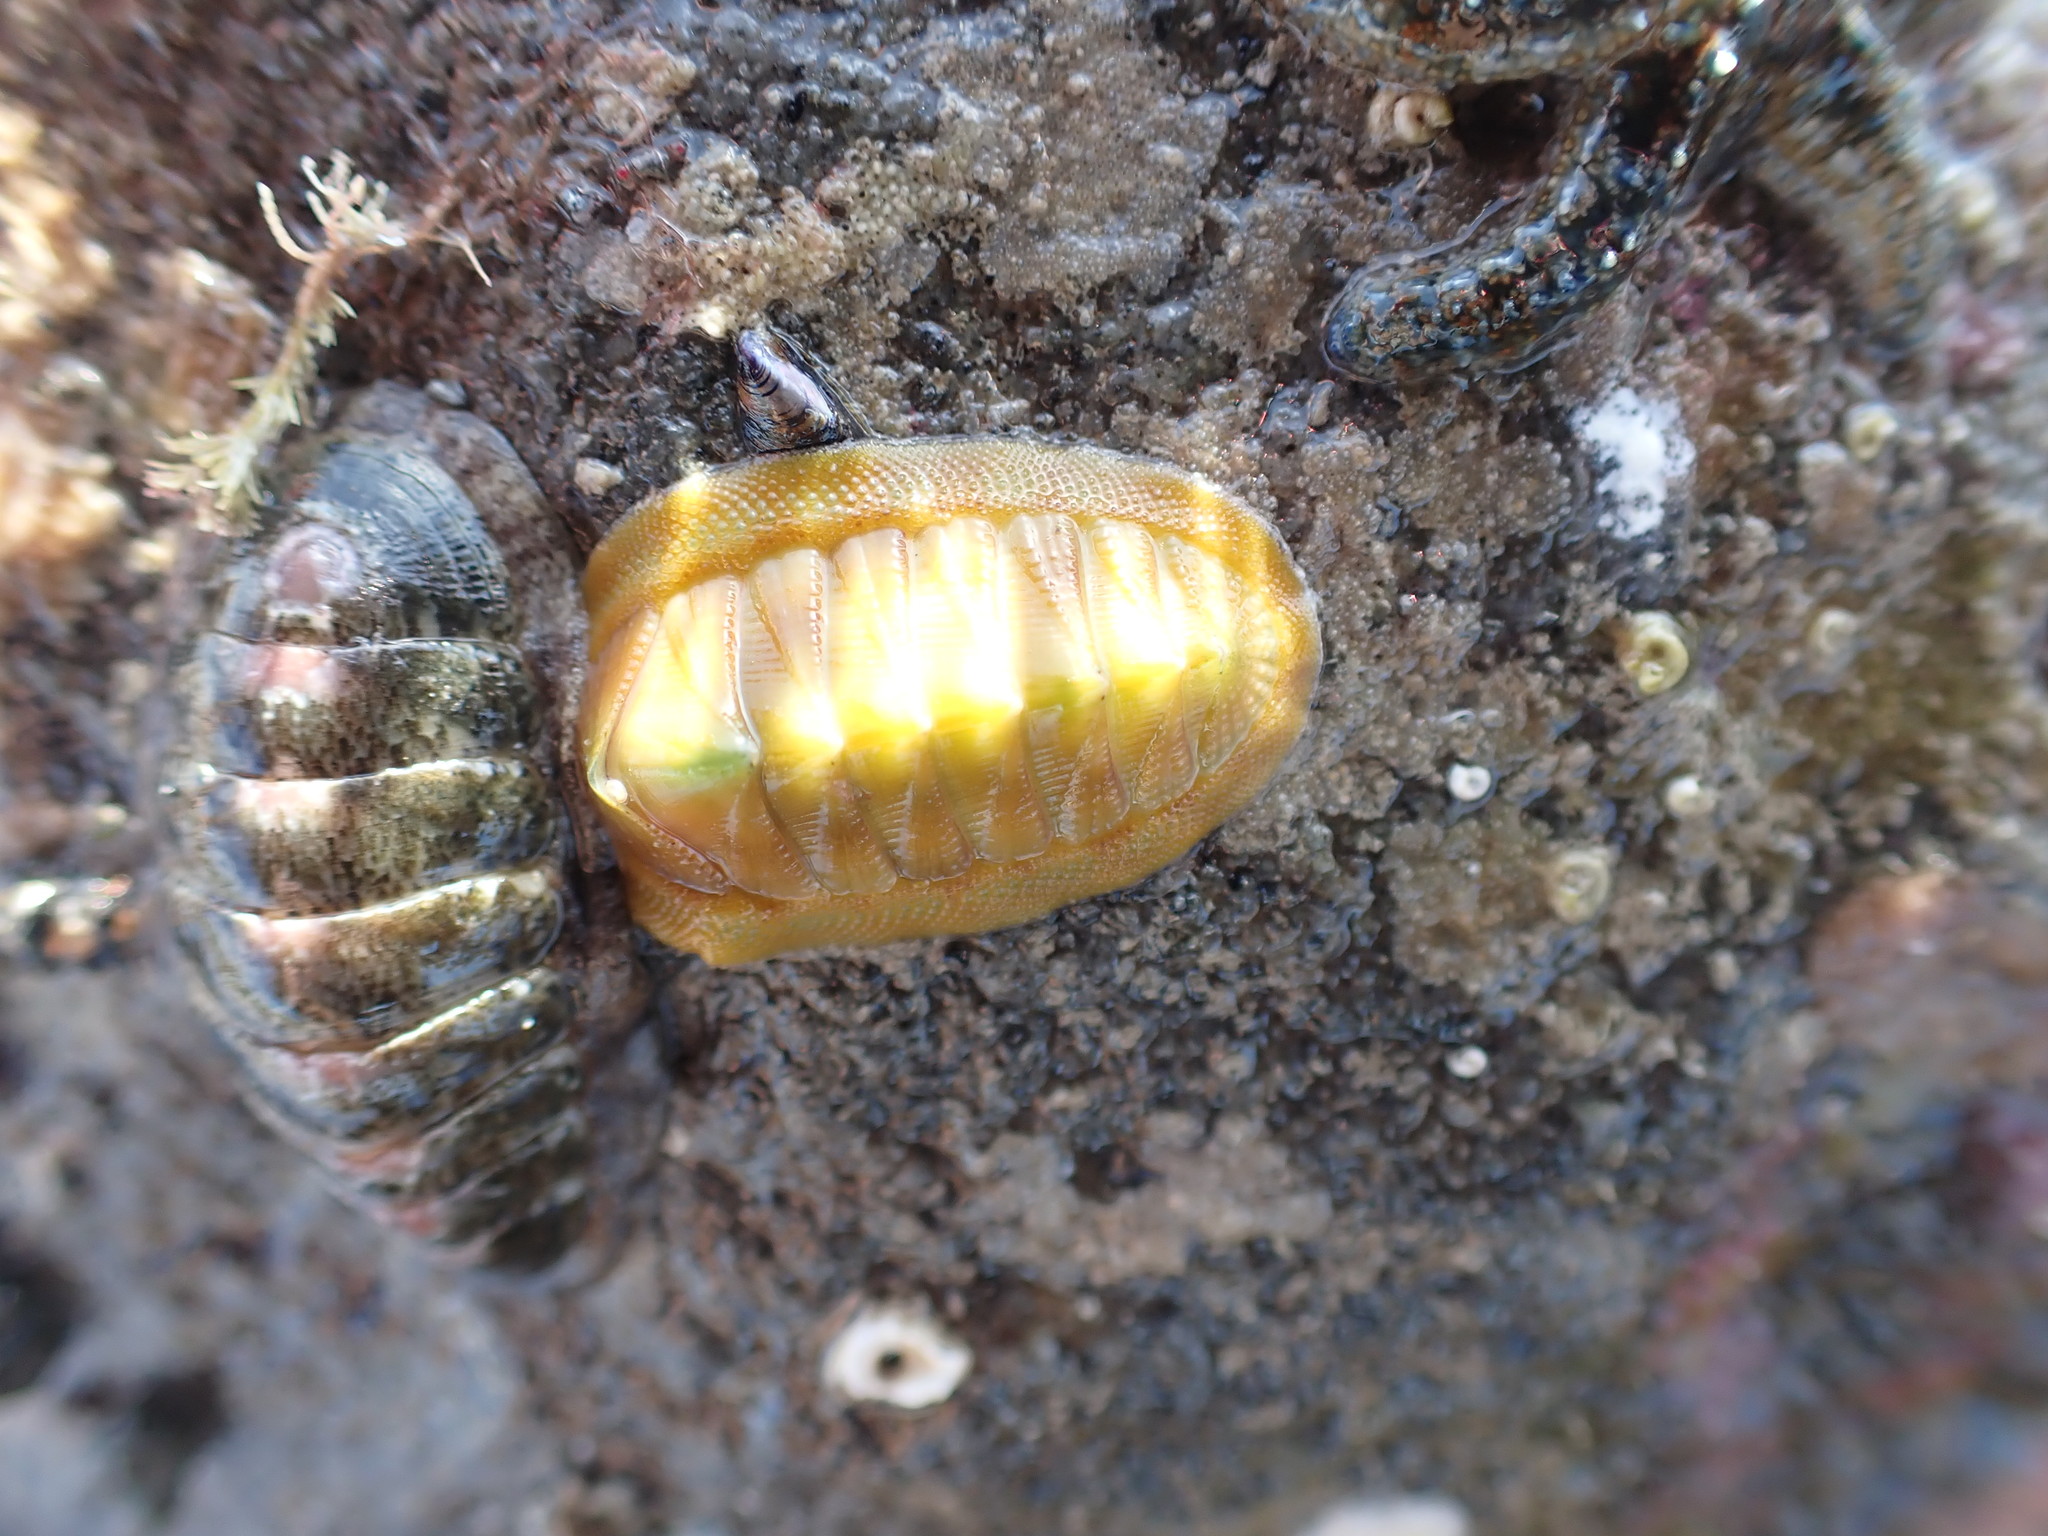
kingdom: Animalia
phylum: Mollusca
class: Polyplacophora
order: Chitonida
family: Chitonidae
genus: Rhyssoplax
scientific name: Rhyssoplax aerea
